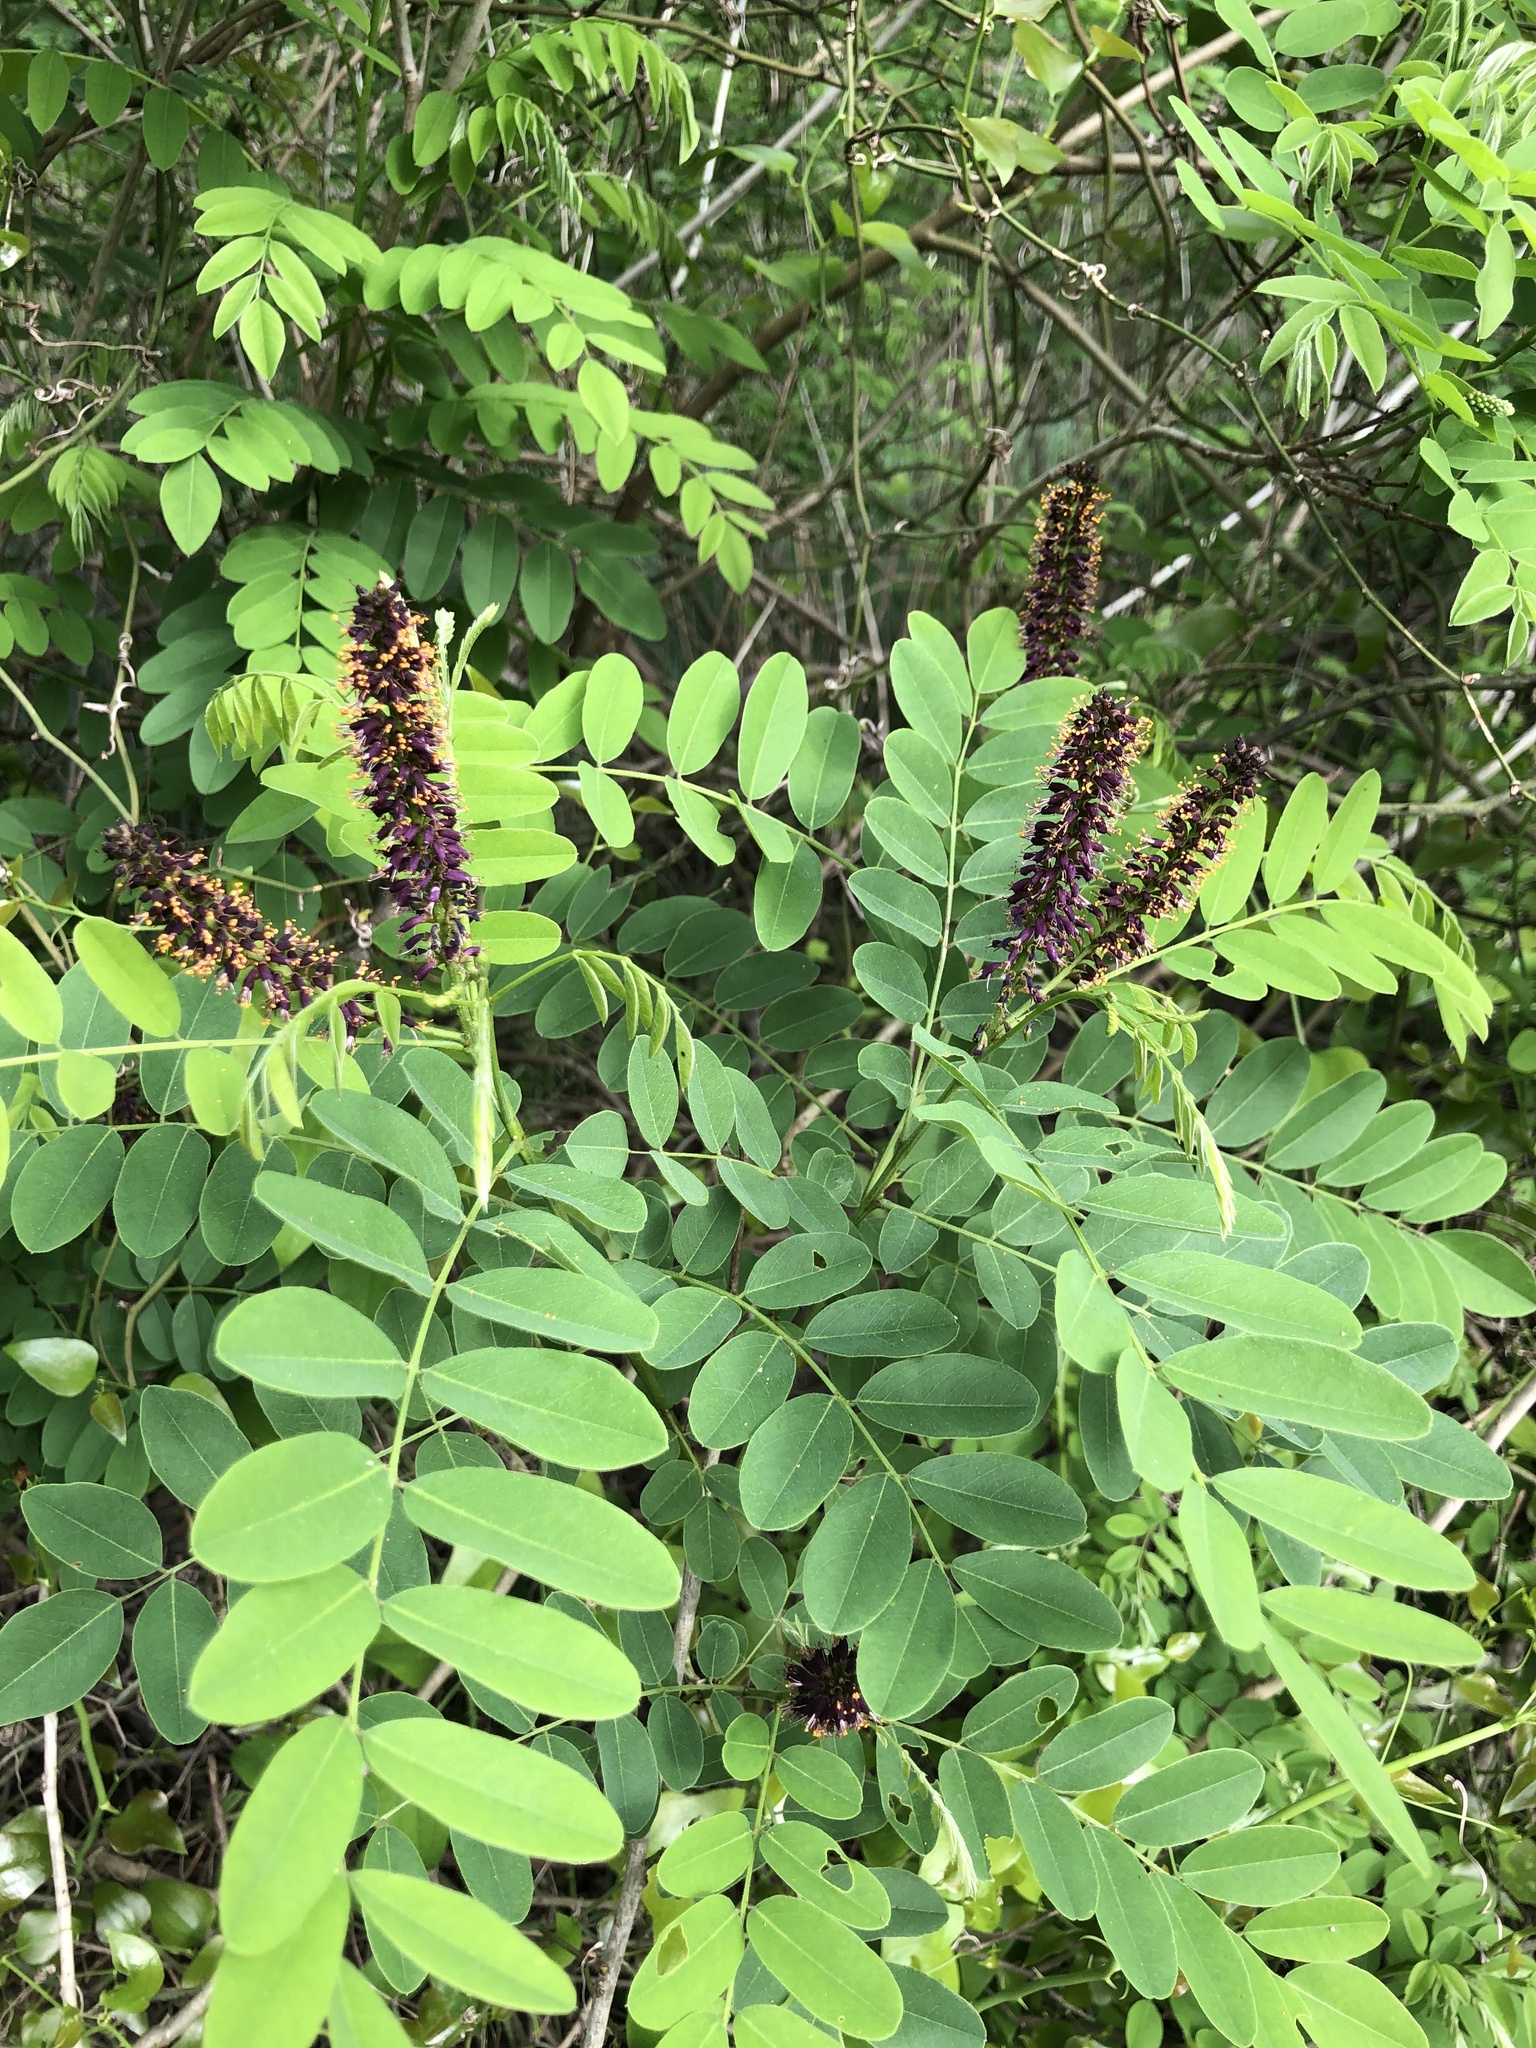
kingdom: Plantae
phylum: Tracheophyta
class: Magnoliopsida
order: Fabales
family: Fabaceae
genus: Amorpha
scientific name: Amorpha fruticosa
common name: False indigo
